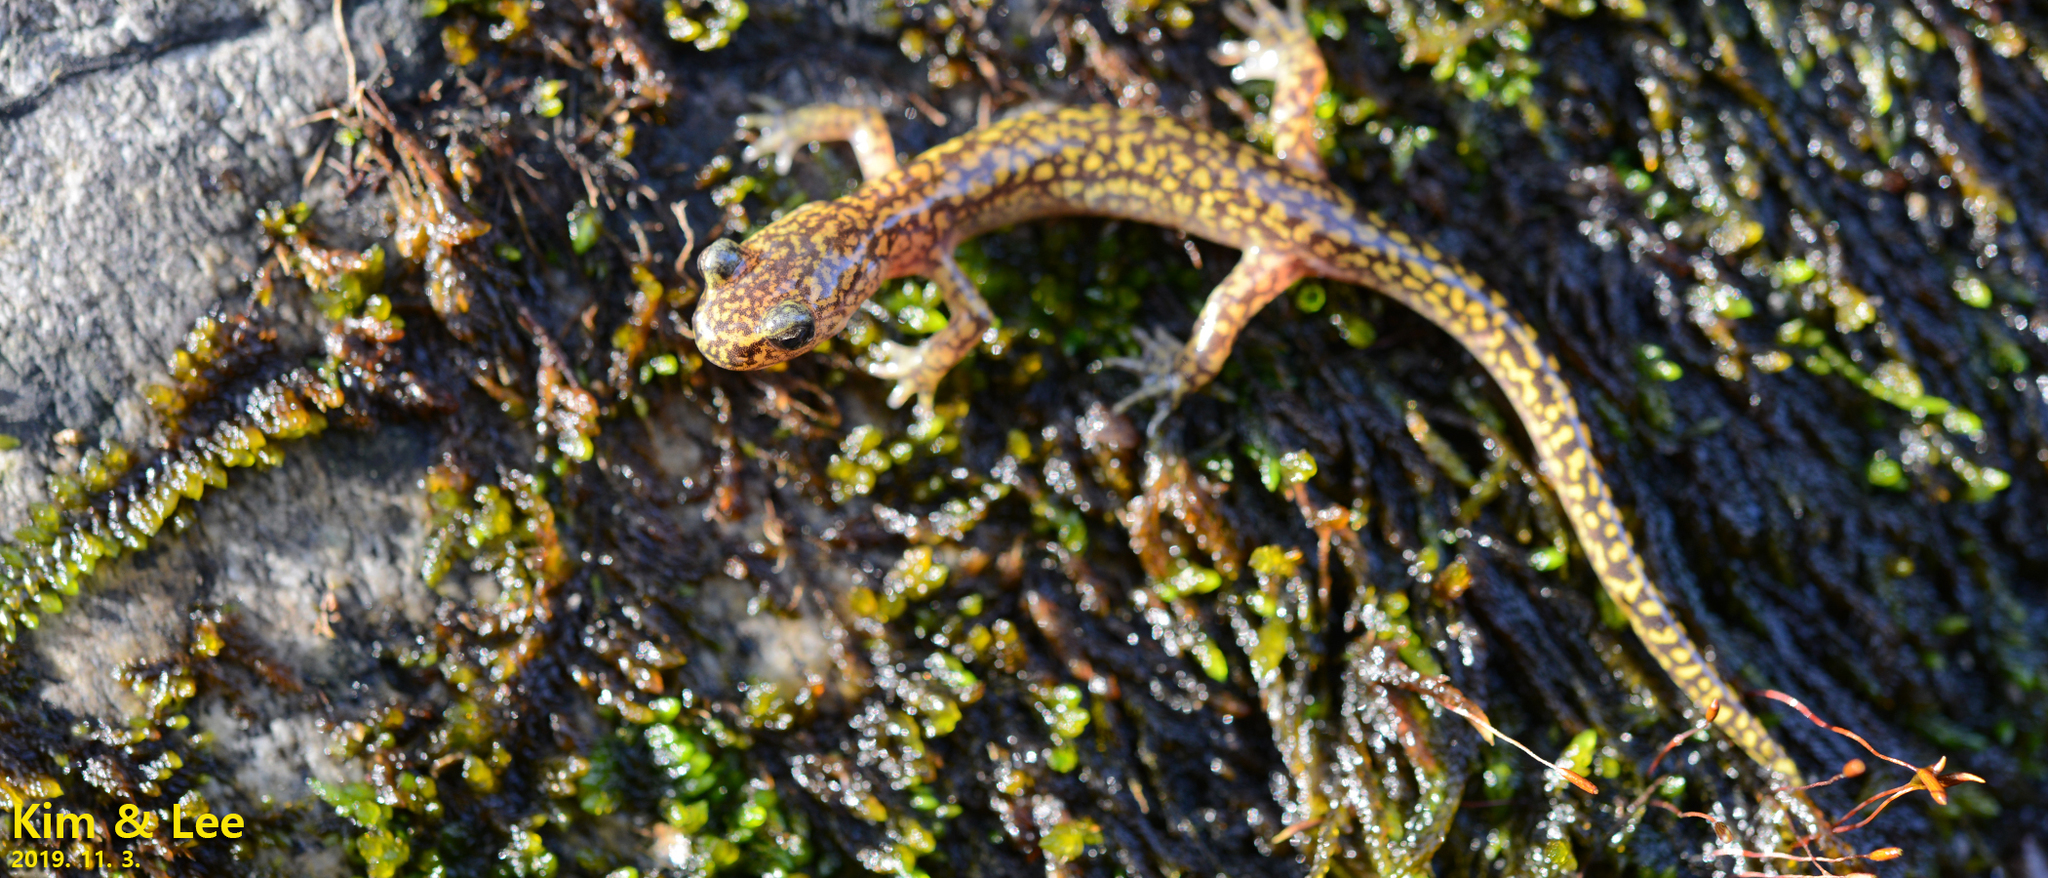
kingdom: Animalia
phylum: Chordata
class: Amphibia
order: Caudata
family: Hynobiidae
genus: Onychodactylus
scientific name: Onychodactylus koreanus
